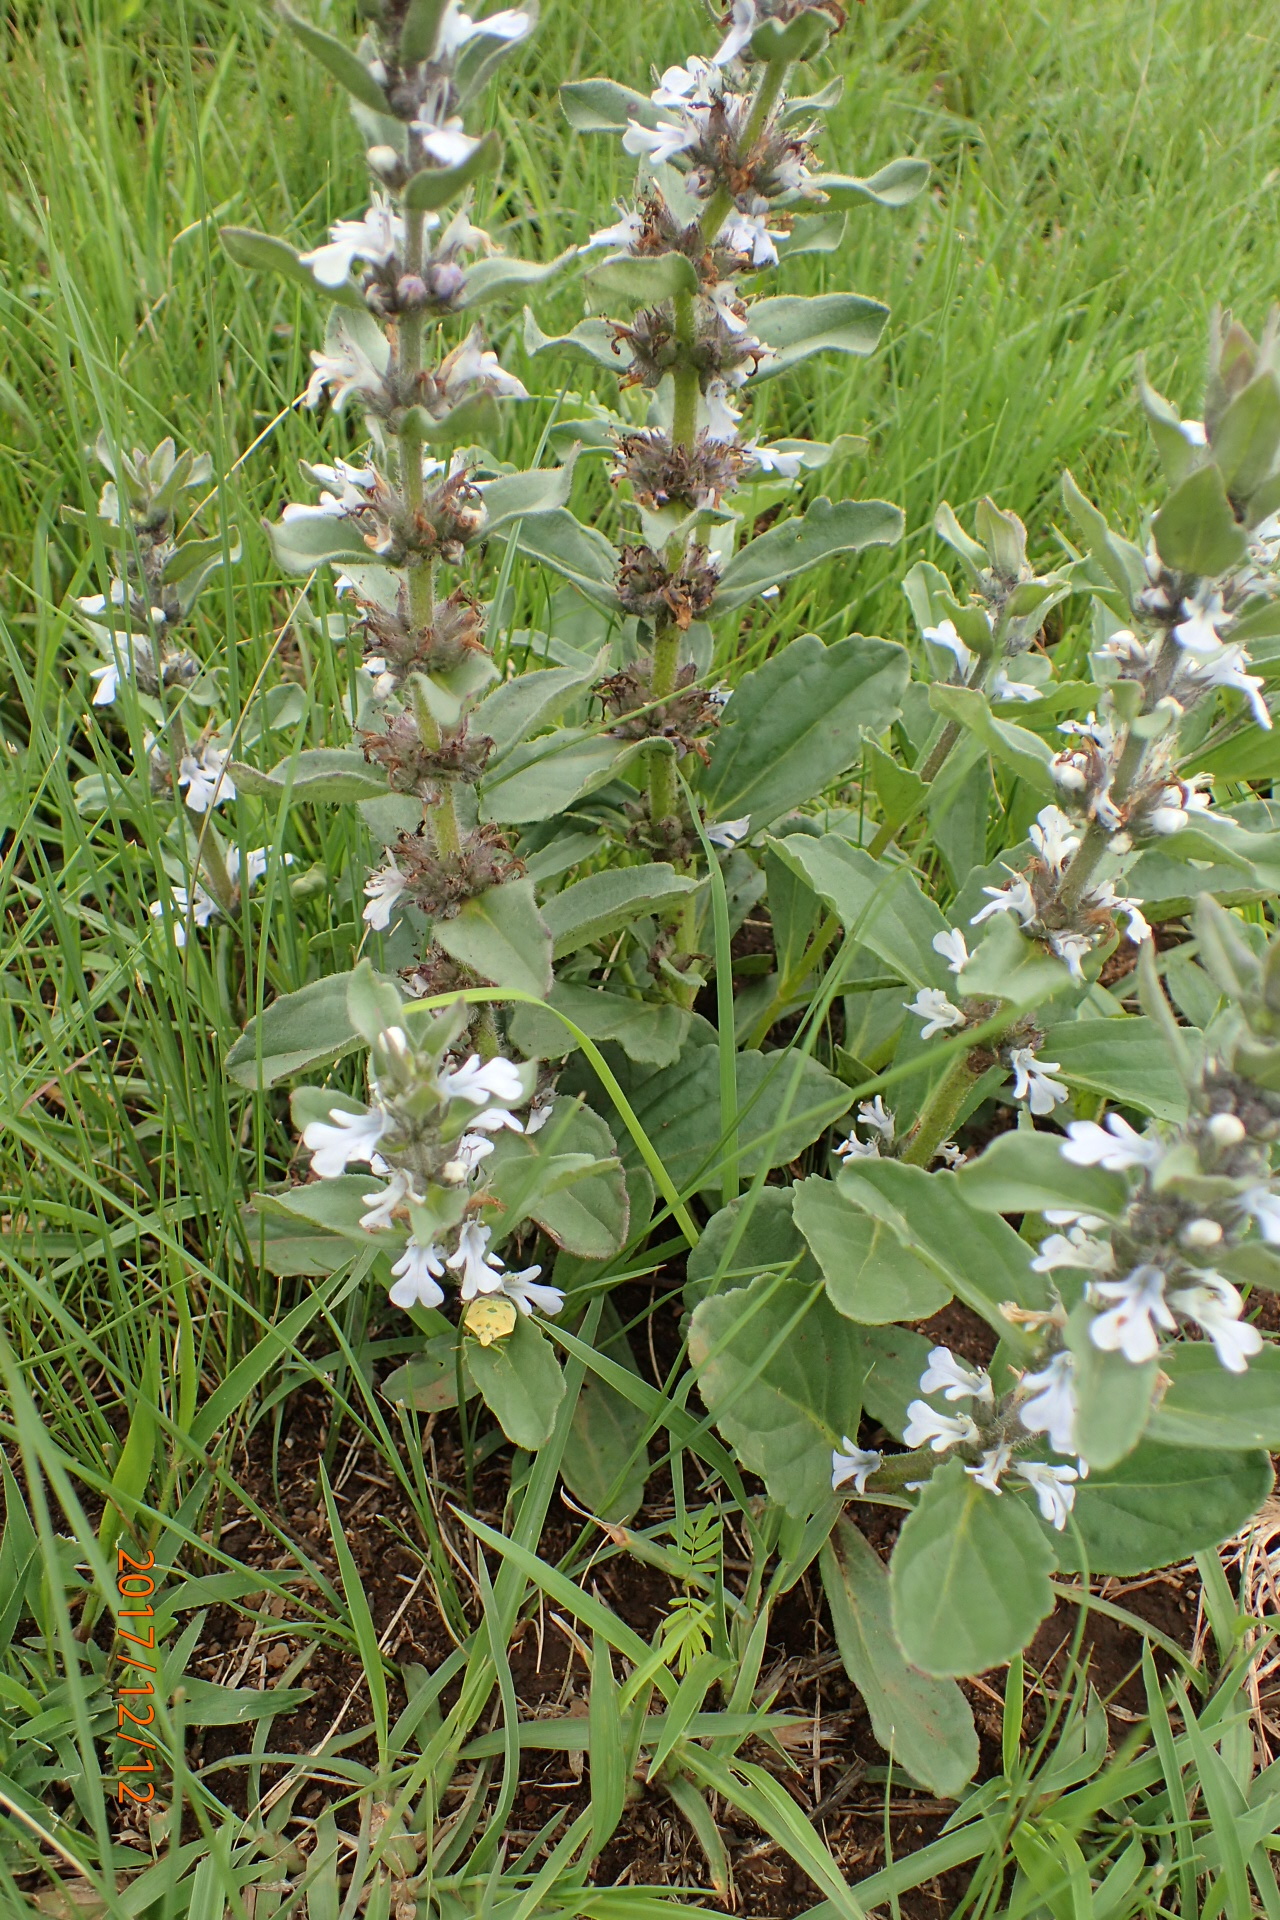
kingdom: Plantae
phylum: Tracheophyta
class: Magnoliopsida
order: Lamiales
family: Lamiaceae
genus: Ajuga
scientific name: Ajuga ophrydis
